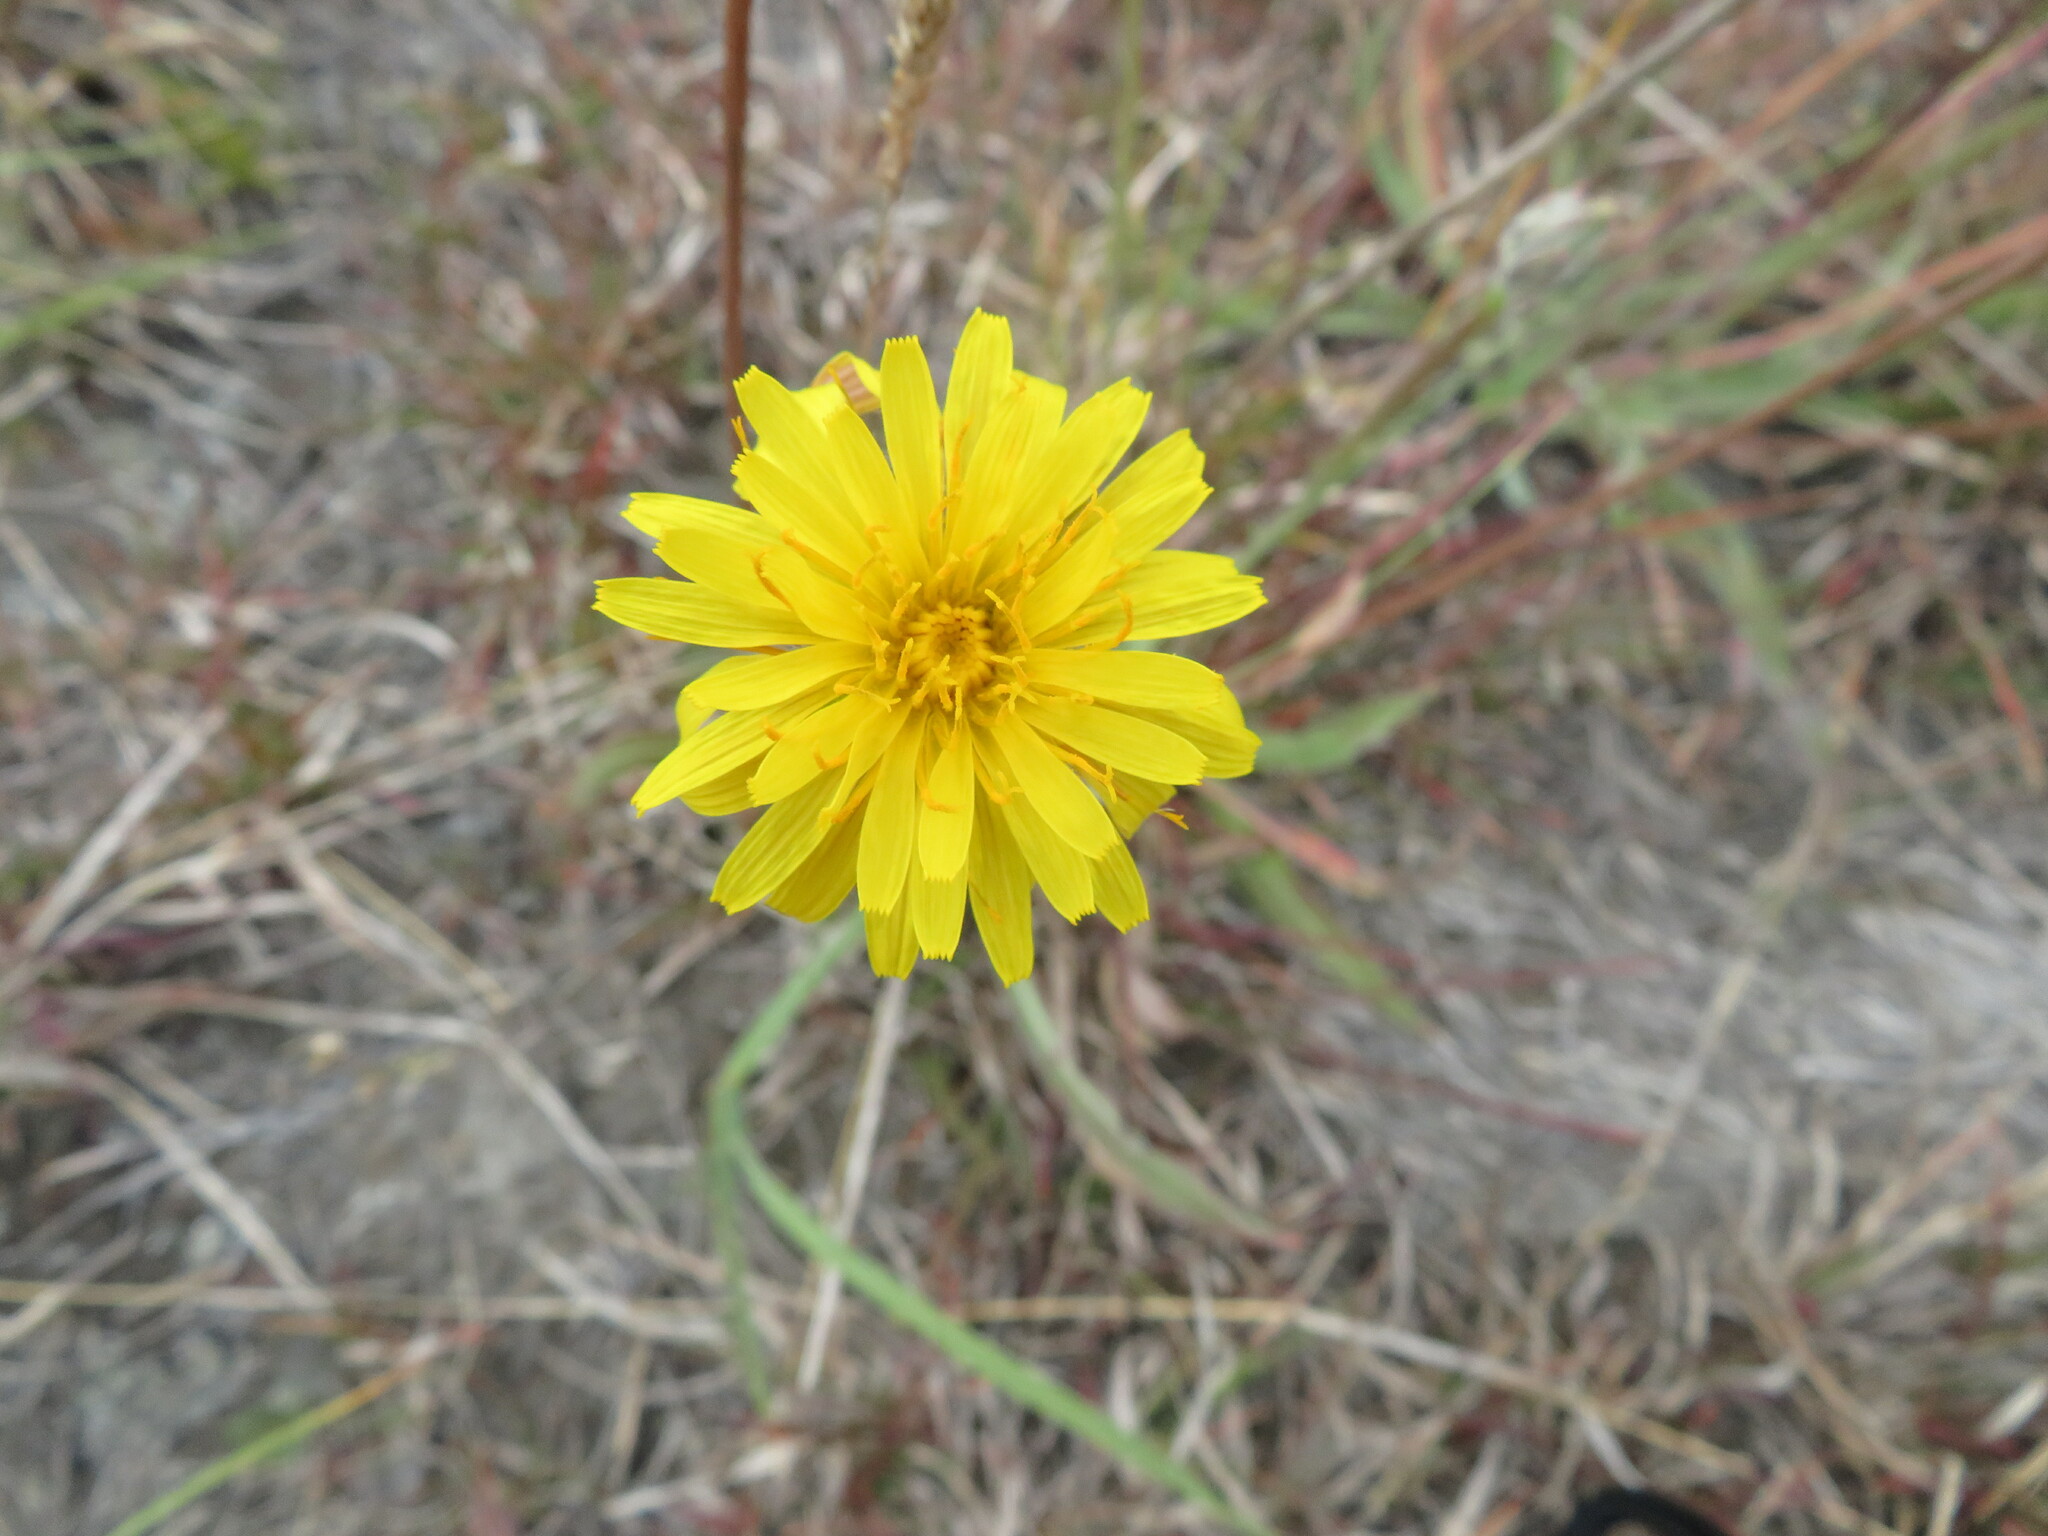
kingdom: Plantae
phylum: Tracheophyta
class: Magnoliopsida
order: Asterales
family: Asteraceae
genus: Agoseris
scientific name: Agoseris glauca
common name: Prairie agoseris
